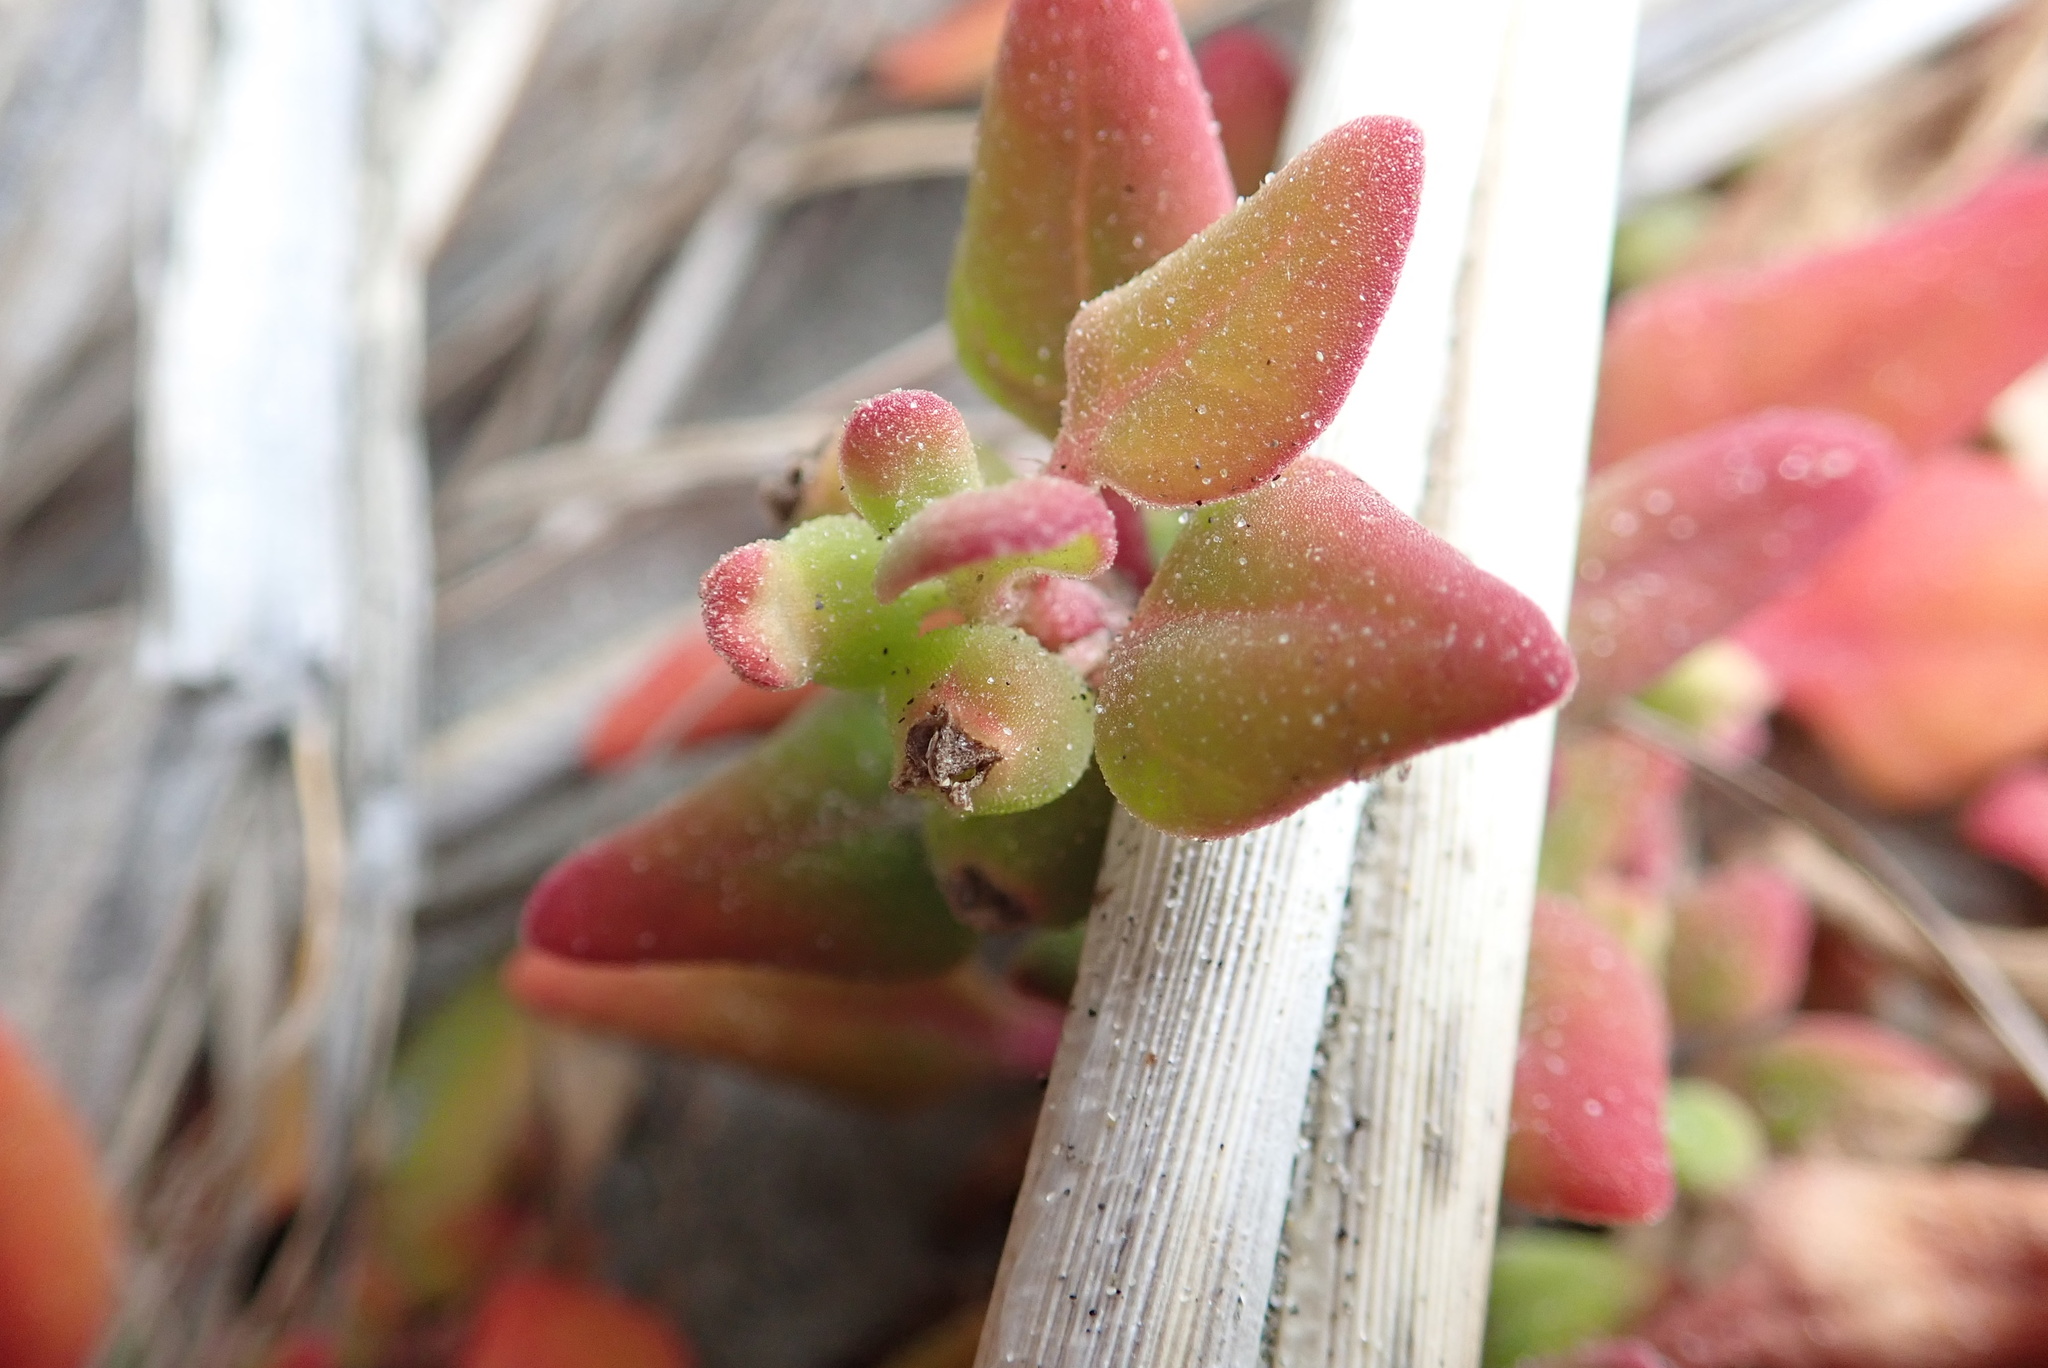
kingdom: Plantae
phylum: Tracheophyta
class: Magnoliopsida
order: Caryophyllales
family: Aizoaceae
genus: Tetragonia
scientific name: Tetragonia implexicoma
